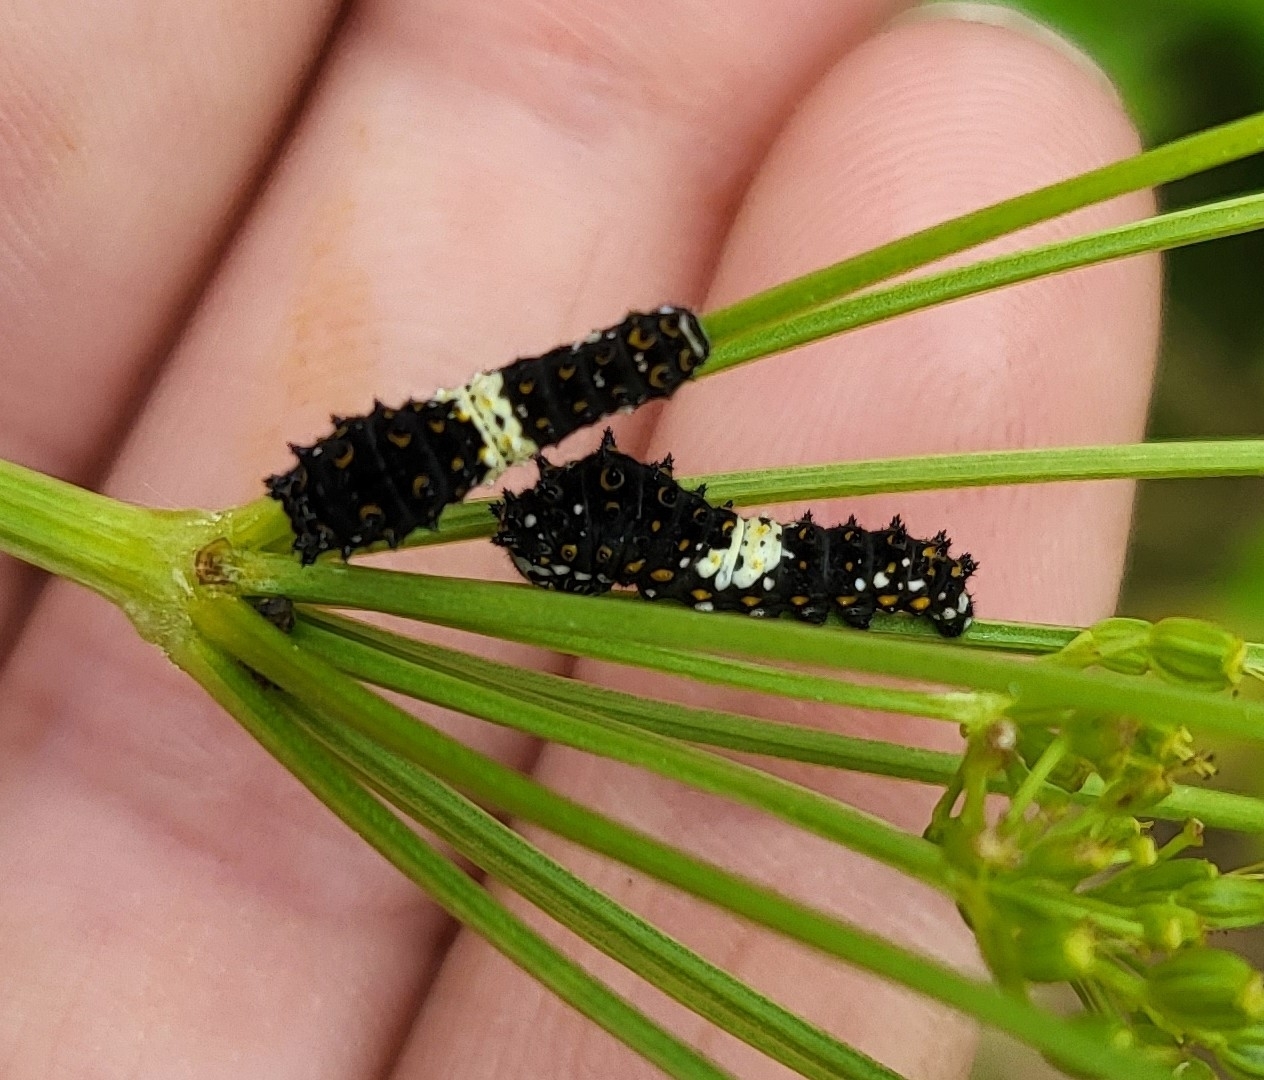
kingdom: Animalia
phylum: Arthropoda
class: Insecta
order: Lepidoptera
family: Papilionidae
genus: Papilio
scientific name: Papilio polyxenes
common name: Black swallowtail
